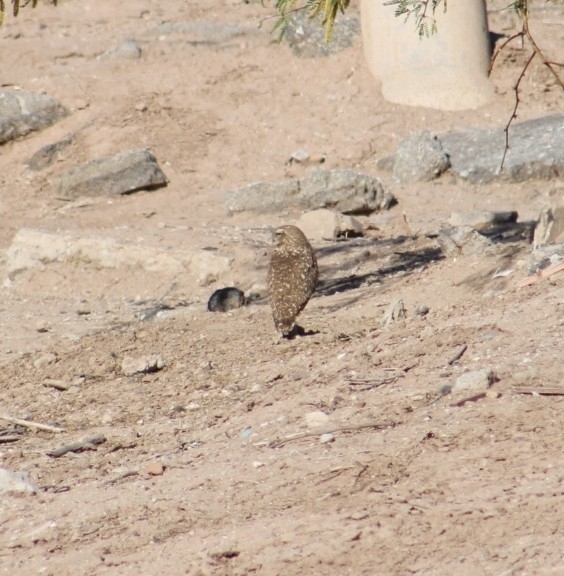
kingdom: Animalia
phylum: Chordata
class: Aves
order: Strigiformes
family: Strigidae
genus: Athene
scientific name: Athene cunicularia
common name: Burrowing owl
